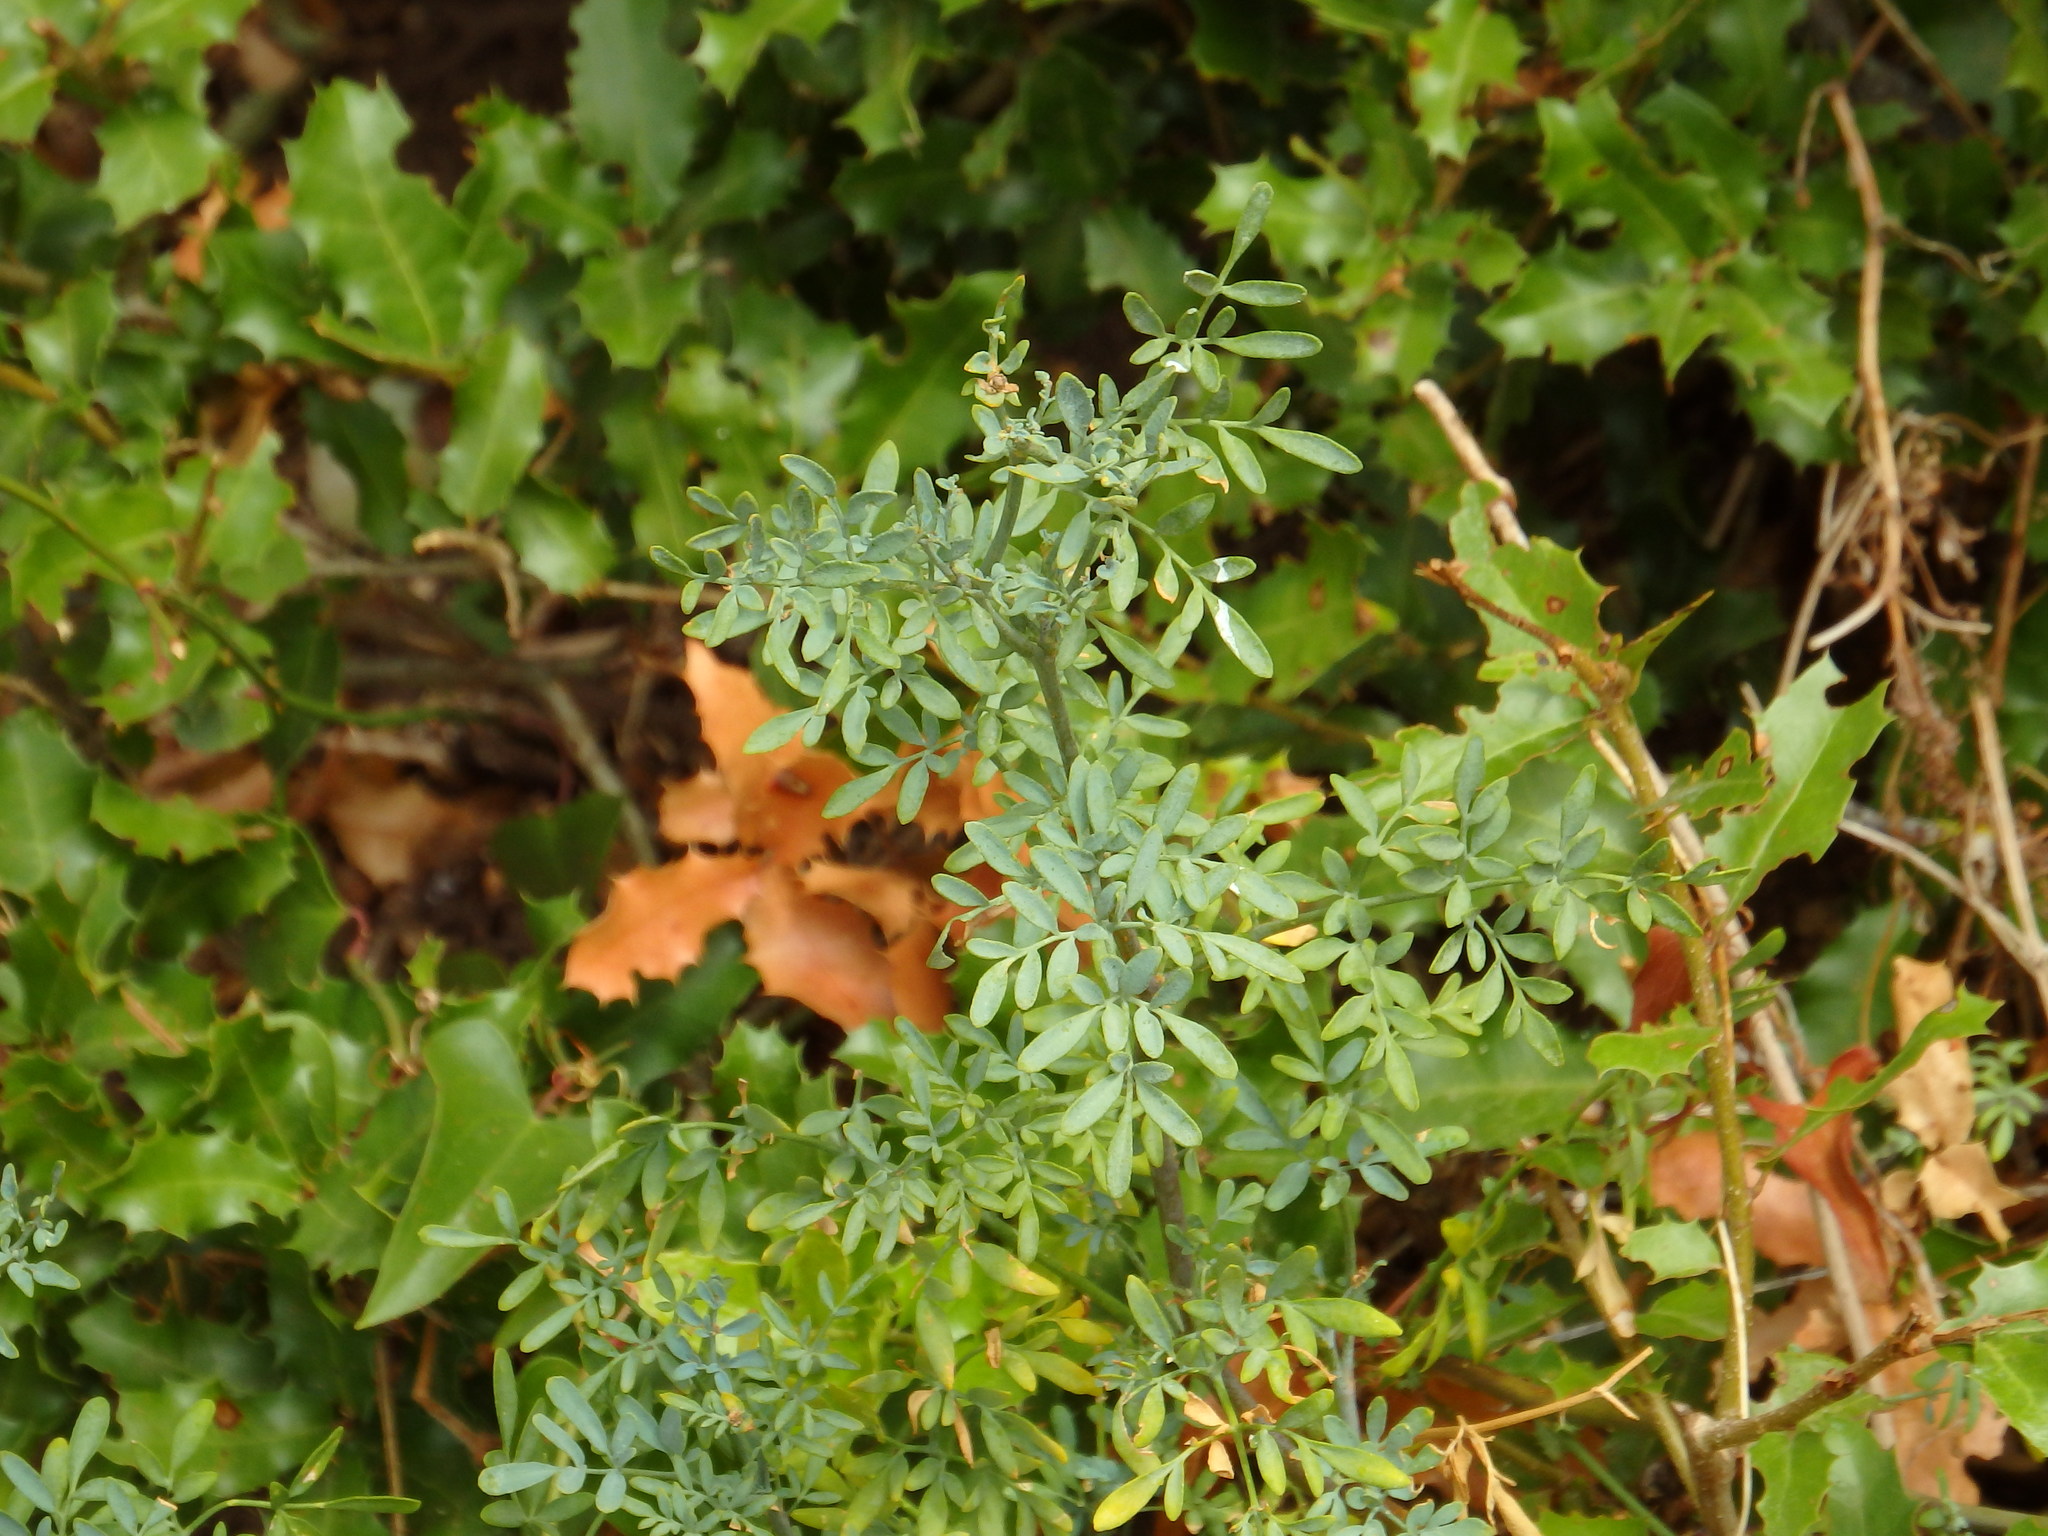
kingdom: Plantae
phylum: Tracheophyta
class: Magnoliopsida
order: Sapindales
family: Rutaceae
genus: Ruta
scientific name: Ruta chalepensis
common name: Fringed rue
